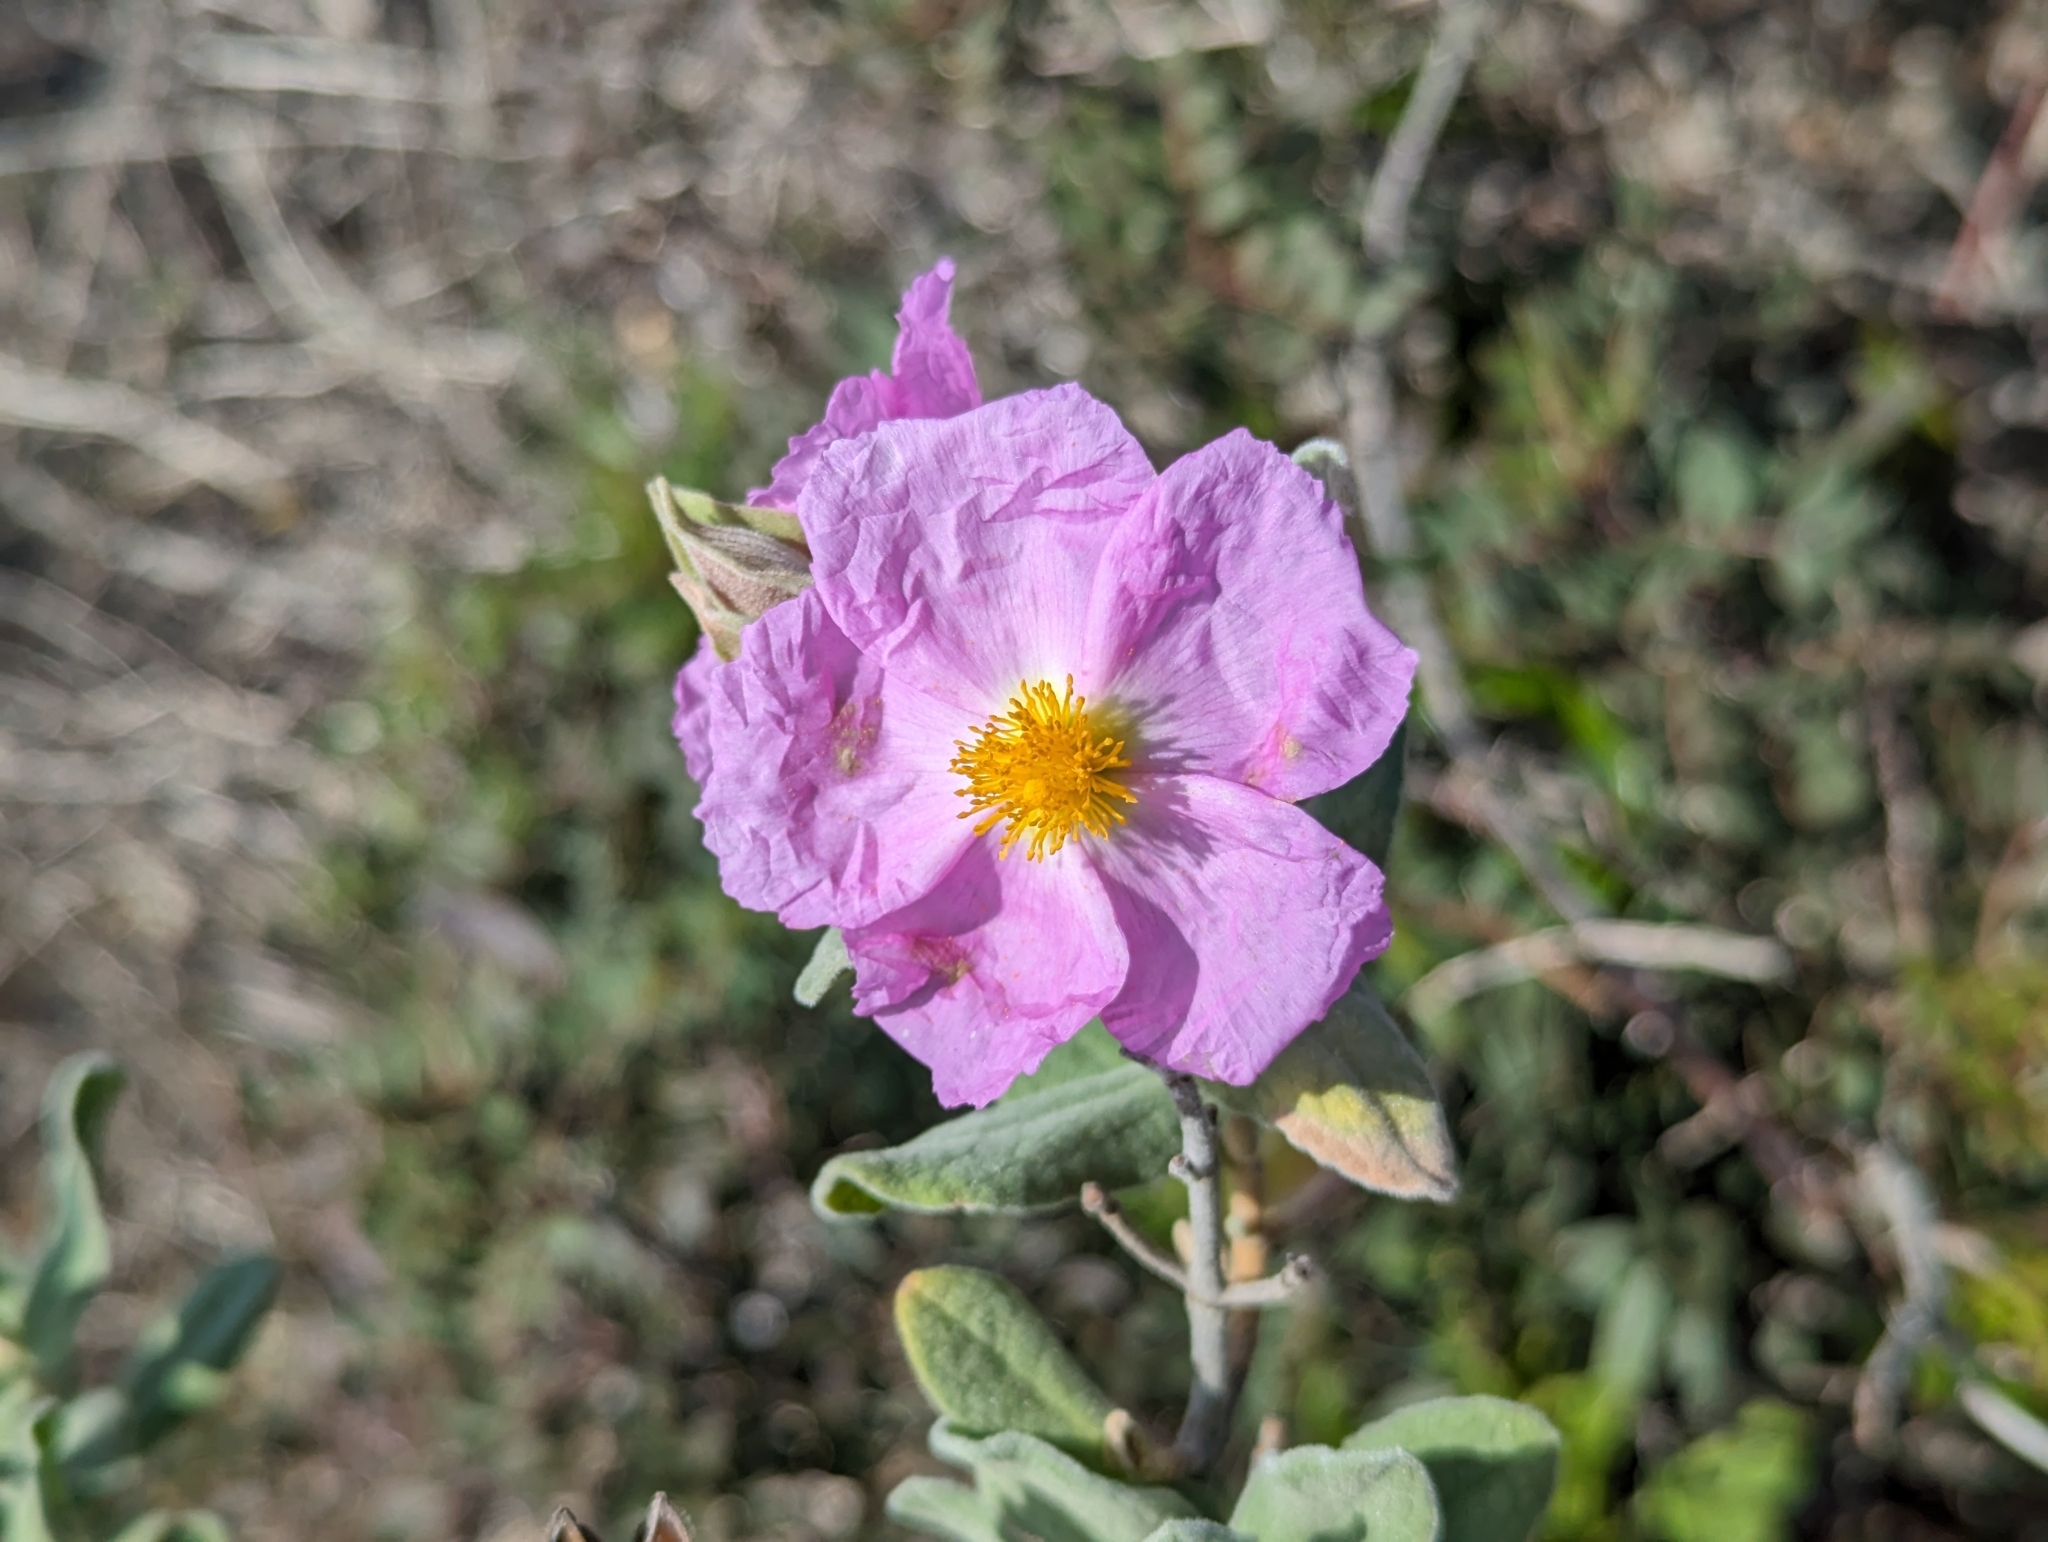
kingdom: Plantae
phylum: Tracheophyta
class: Magnoliopsida
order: Malvales
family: Cistaceae
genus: Cistus
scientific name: Cistus albidus
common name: White-leaf rock-rose
